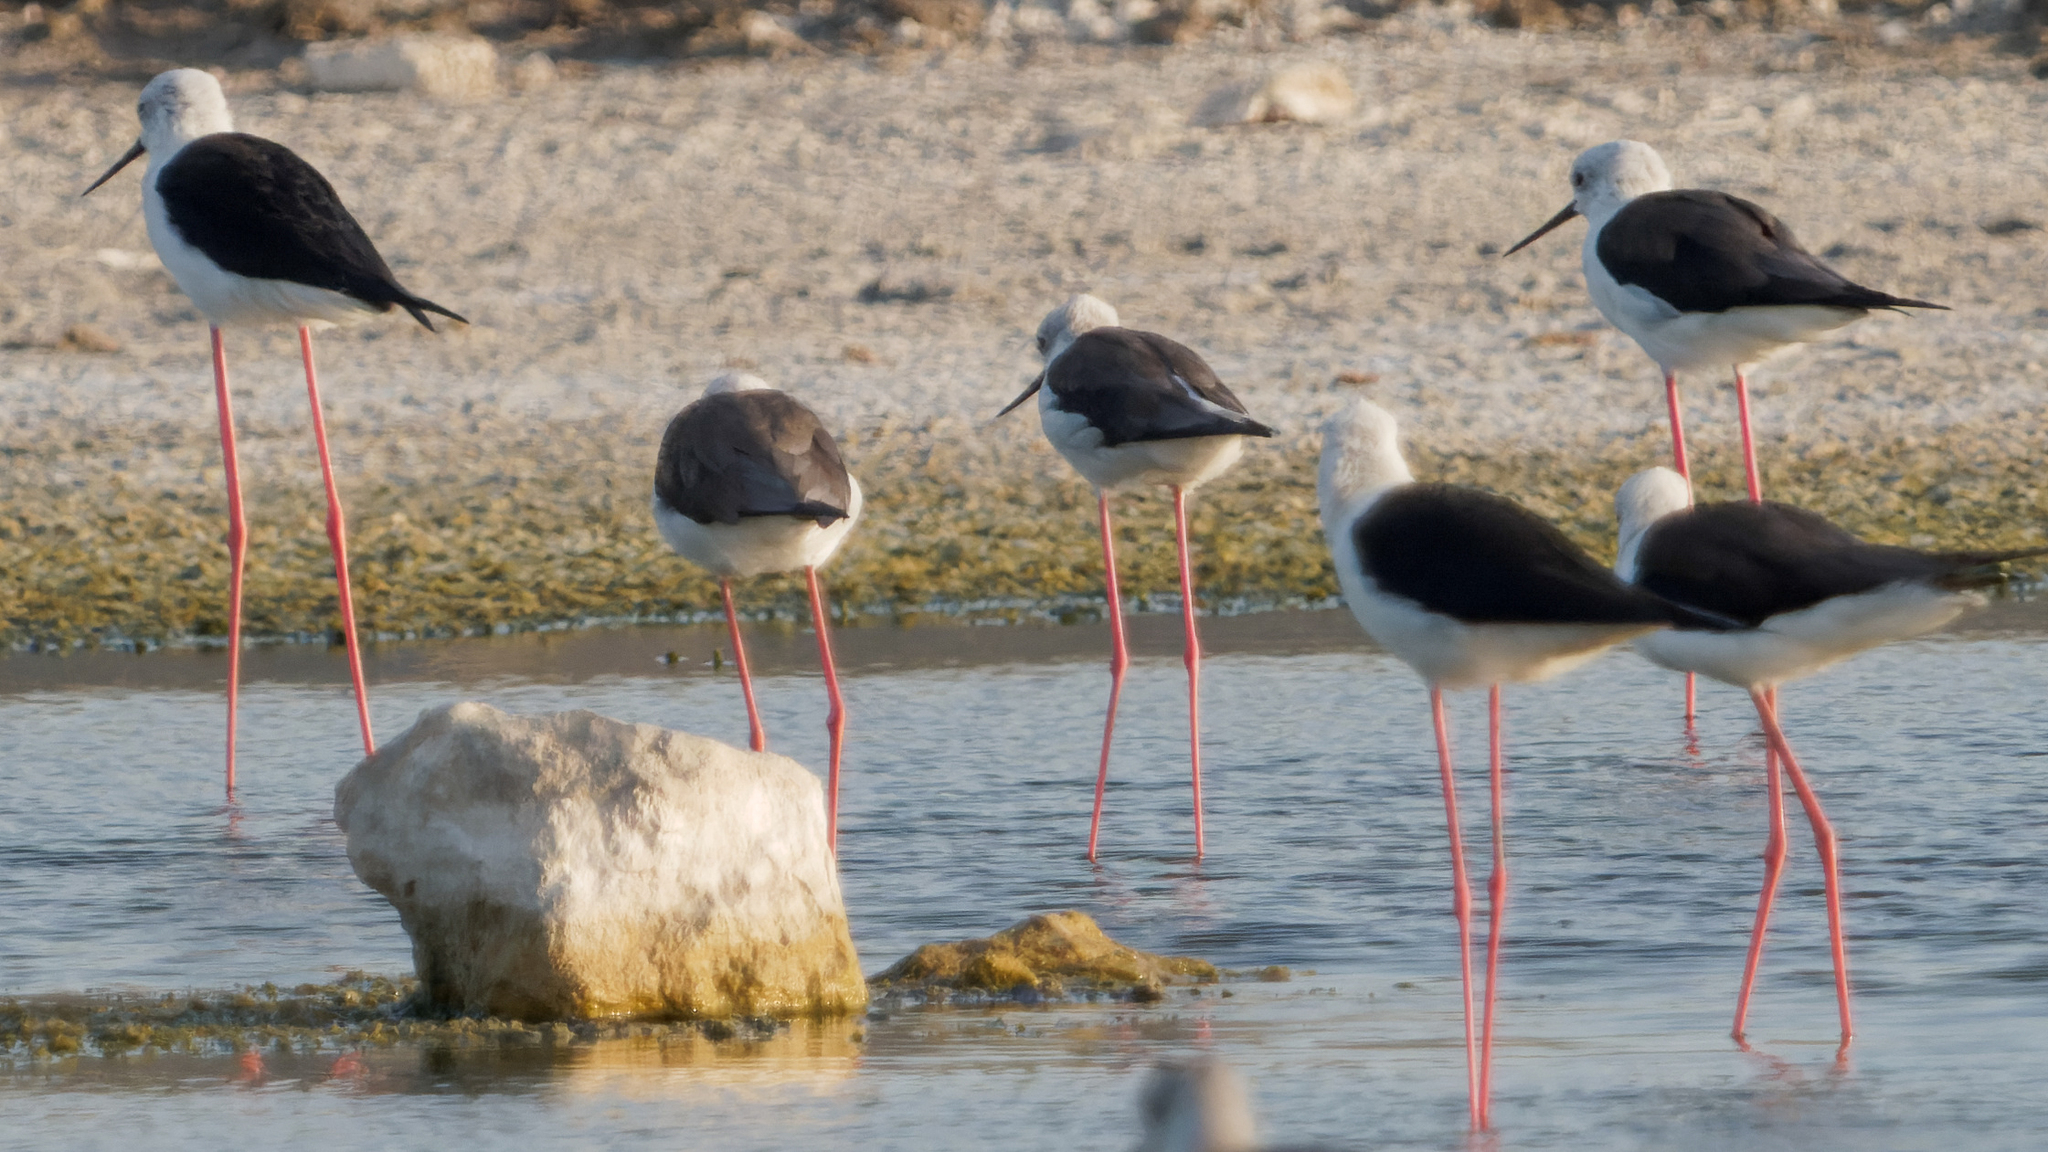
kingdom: Animalia
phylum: Chordata
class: Aves
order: Charadriiformes
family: Recurvirostridae
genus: Himantopus
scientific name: Himantopus himantopus
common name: Black-winged stilt
